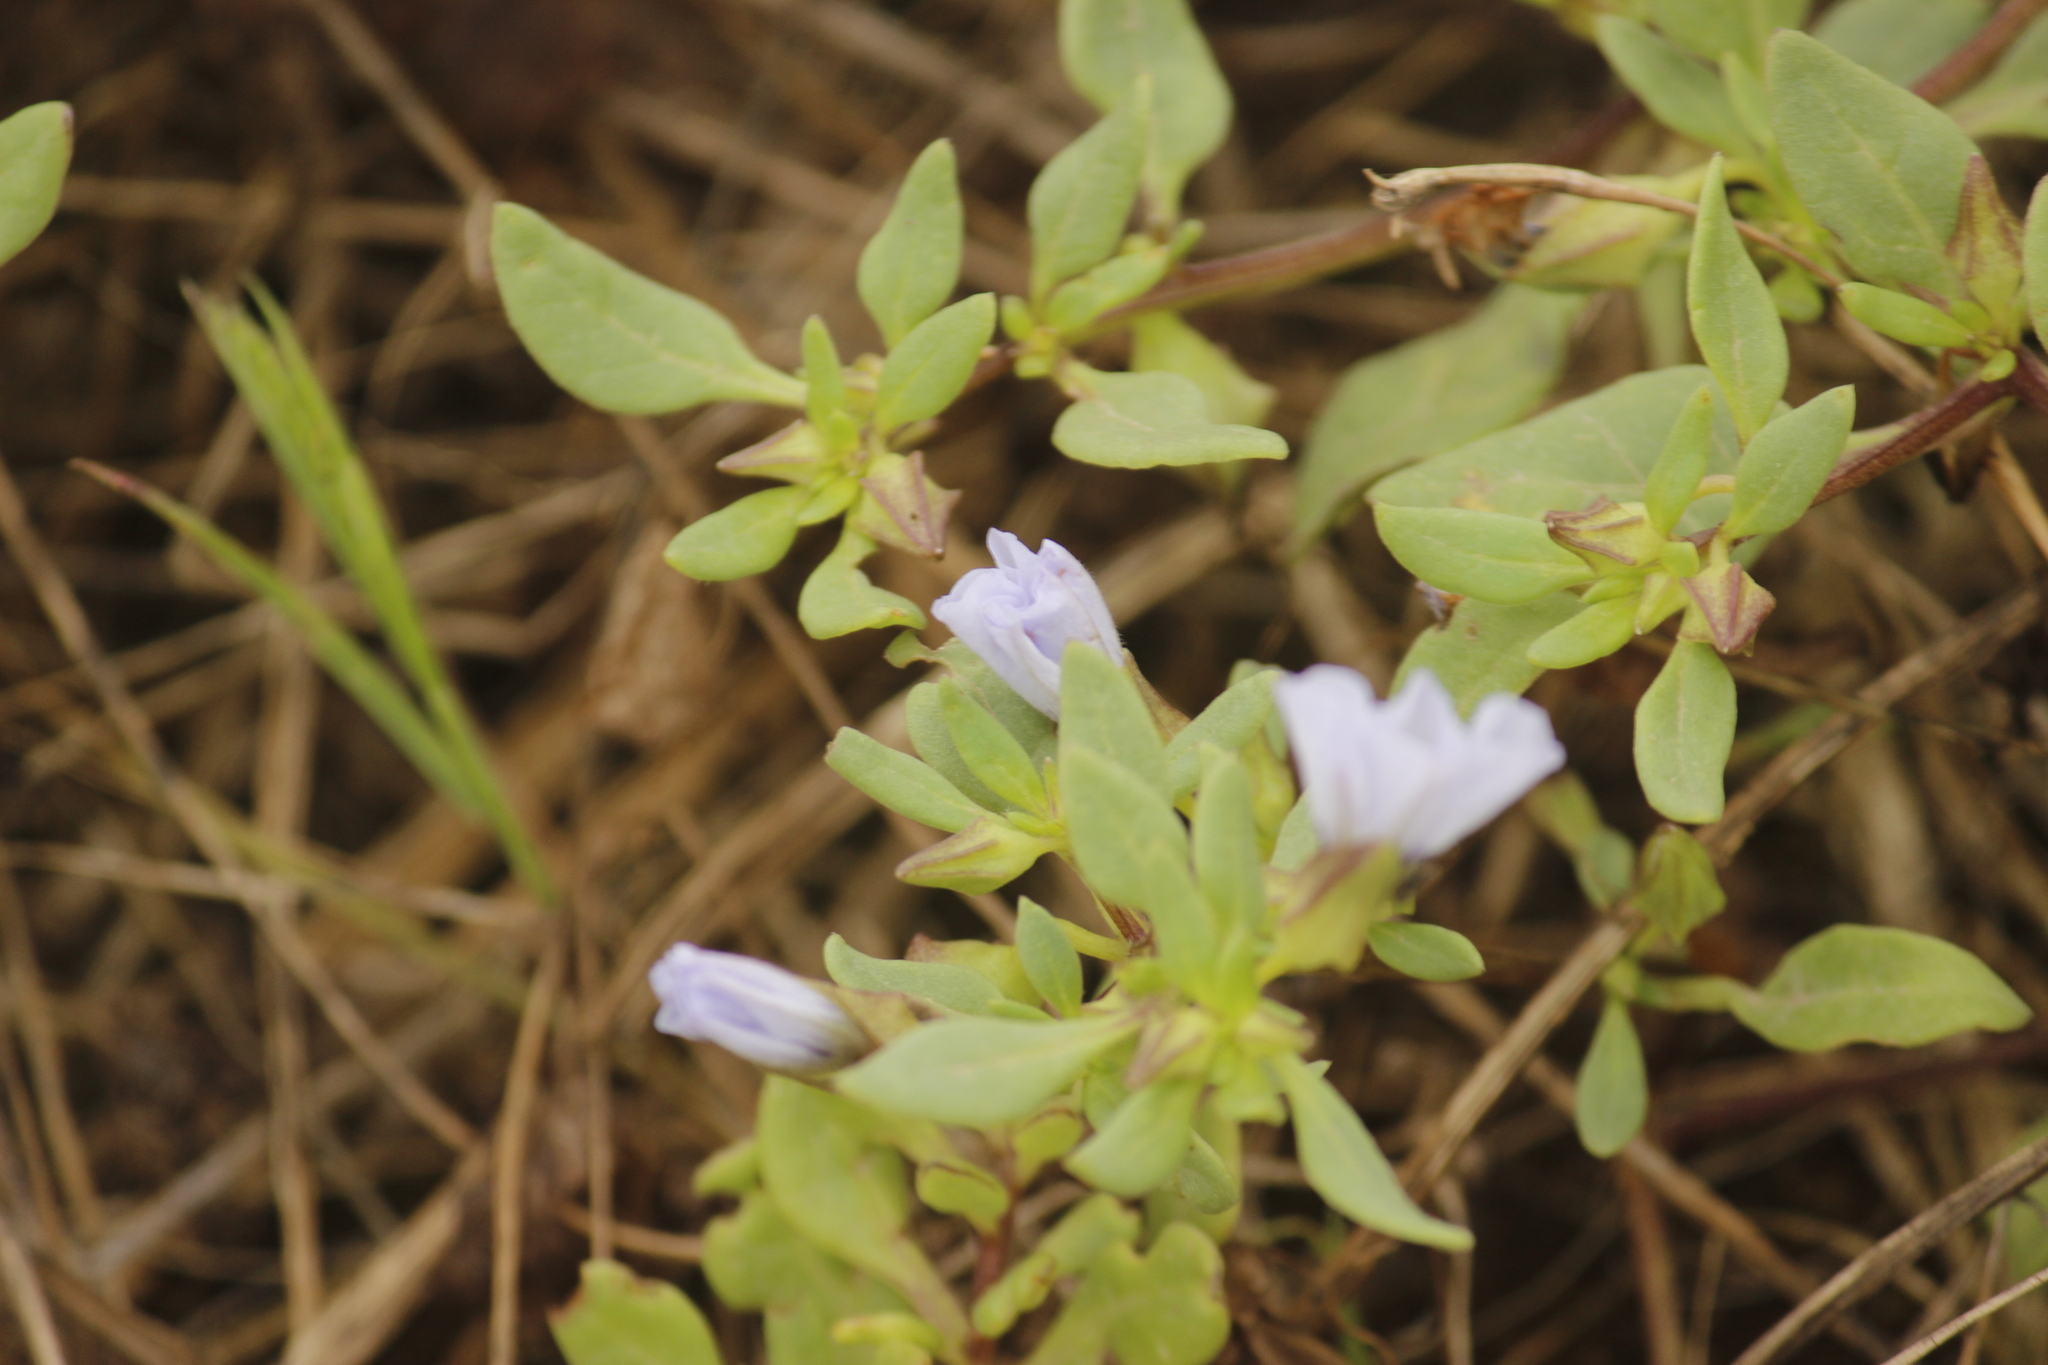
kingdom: Plantae
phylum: Tracheophyta
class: Magnoliopsida
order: Solanales
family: Solanaceae
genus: Nolana
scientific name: Nolana humifusa
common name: Trailing chilean-bellflower
